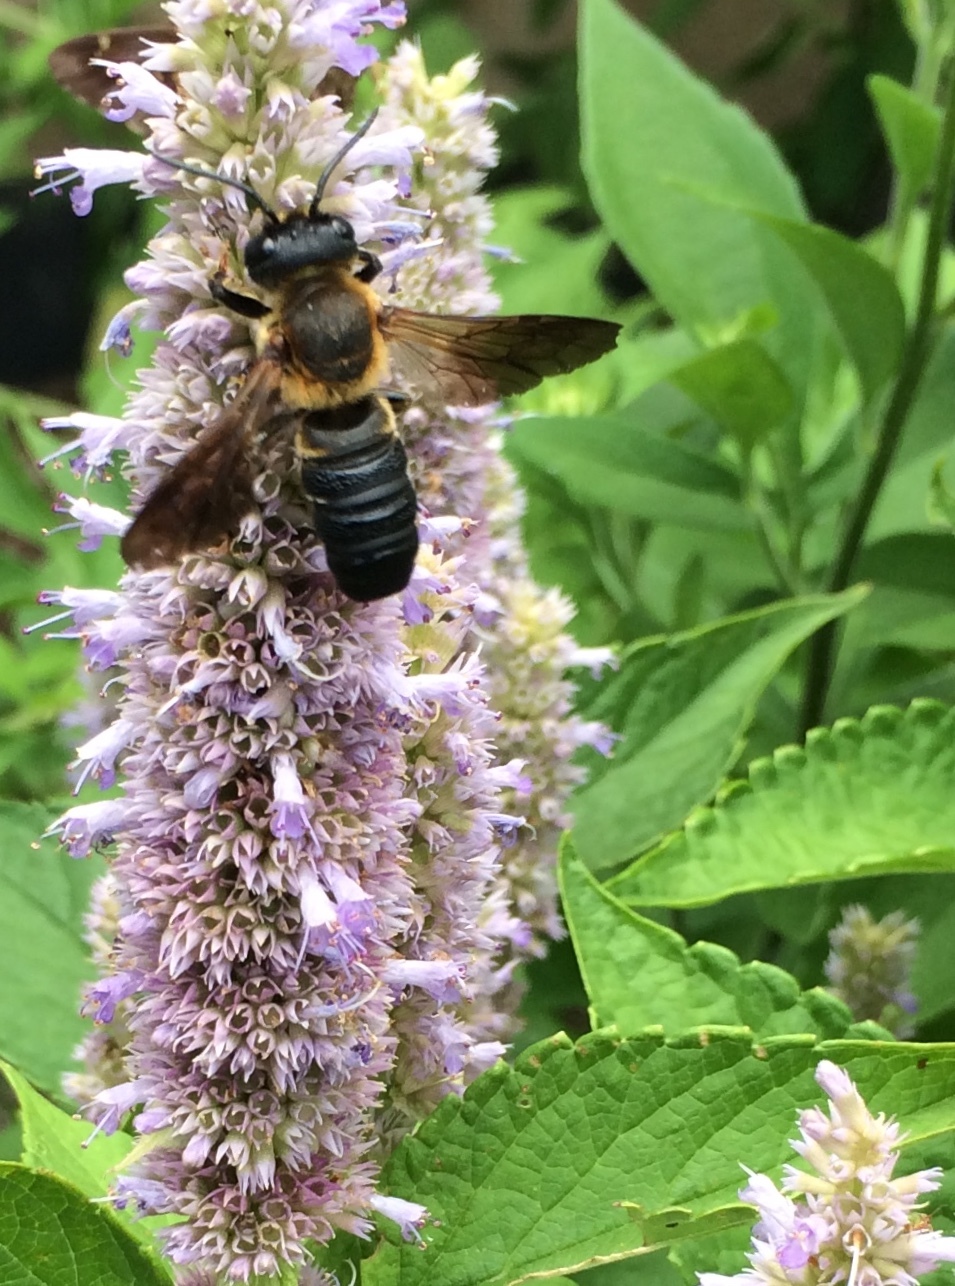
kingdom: Animalia
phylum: Arthropoda
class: Insecta
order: Hymenoptera
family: Megachilidae
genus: Megachile
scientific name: Megachile sculpturalis
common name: Sculptured resin bee
